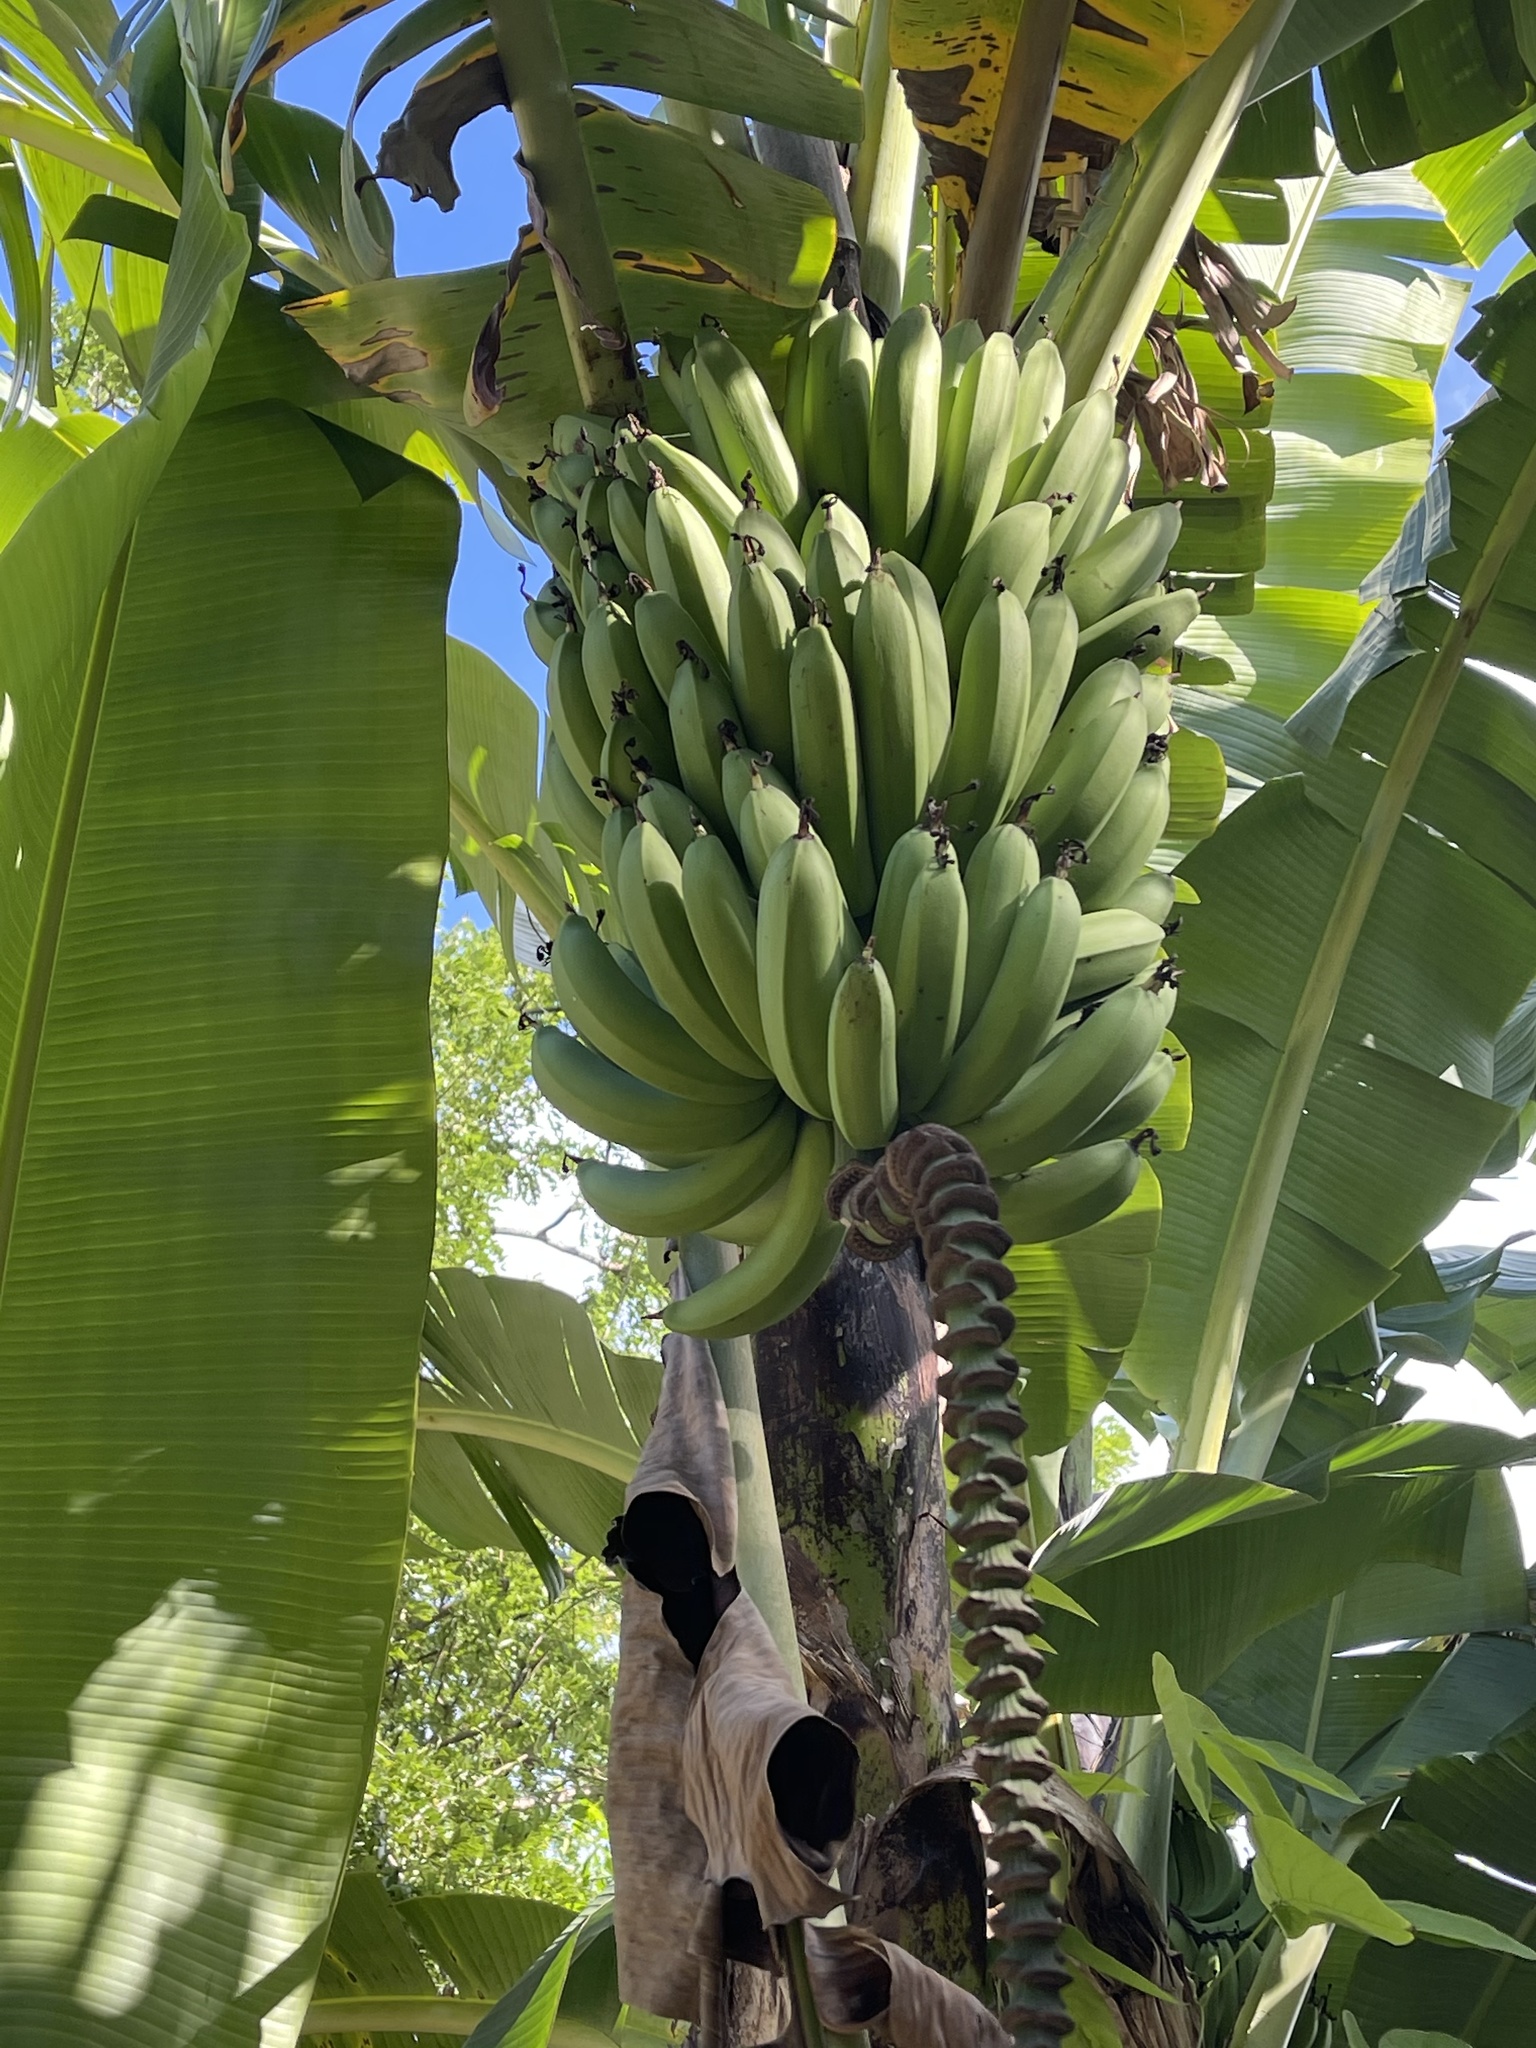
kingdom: Plantae
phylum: Tracheophyta
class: Liliopsida
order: Zingiberales
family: Musaceae
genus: Musa
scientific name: Musa acuminata
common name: Edible banana
